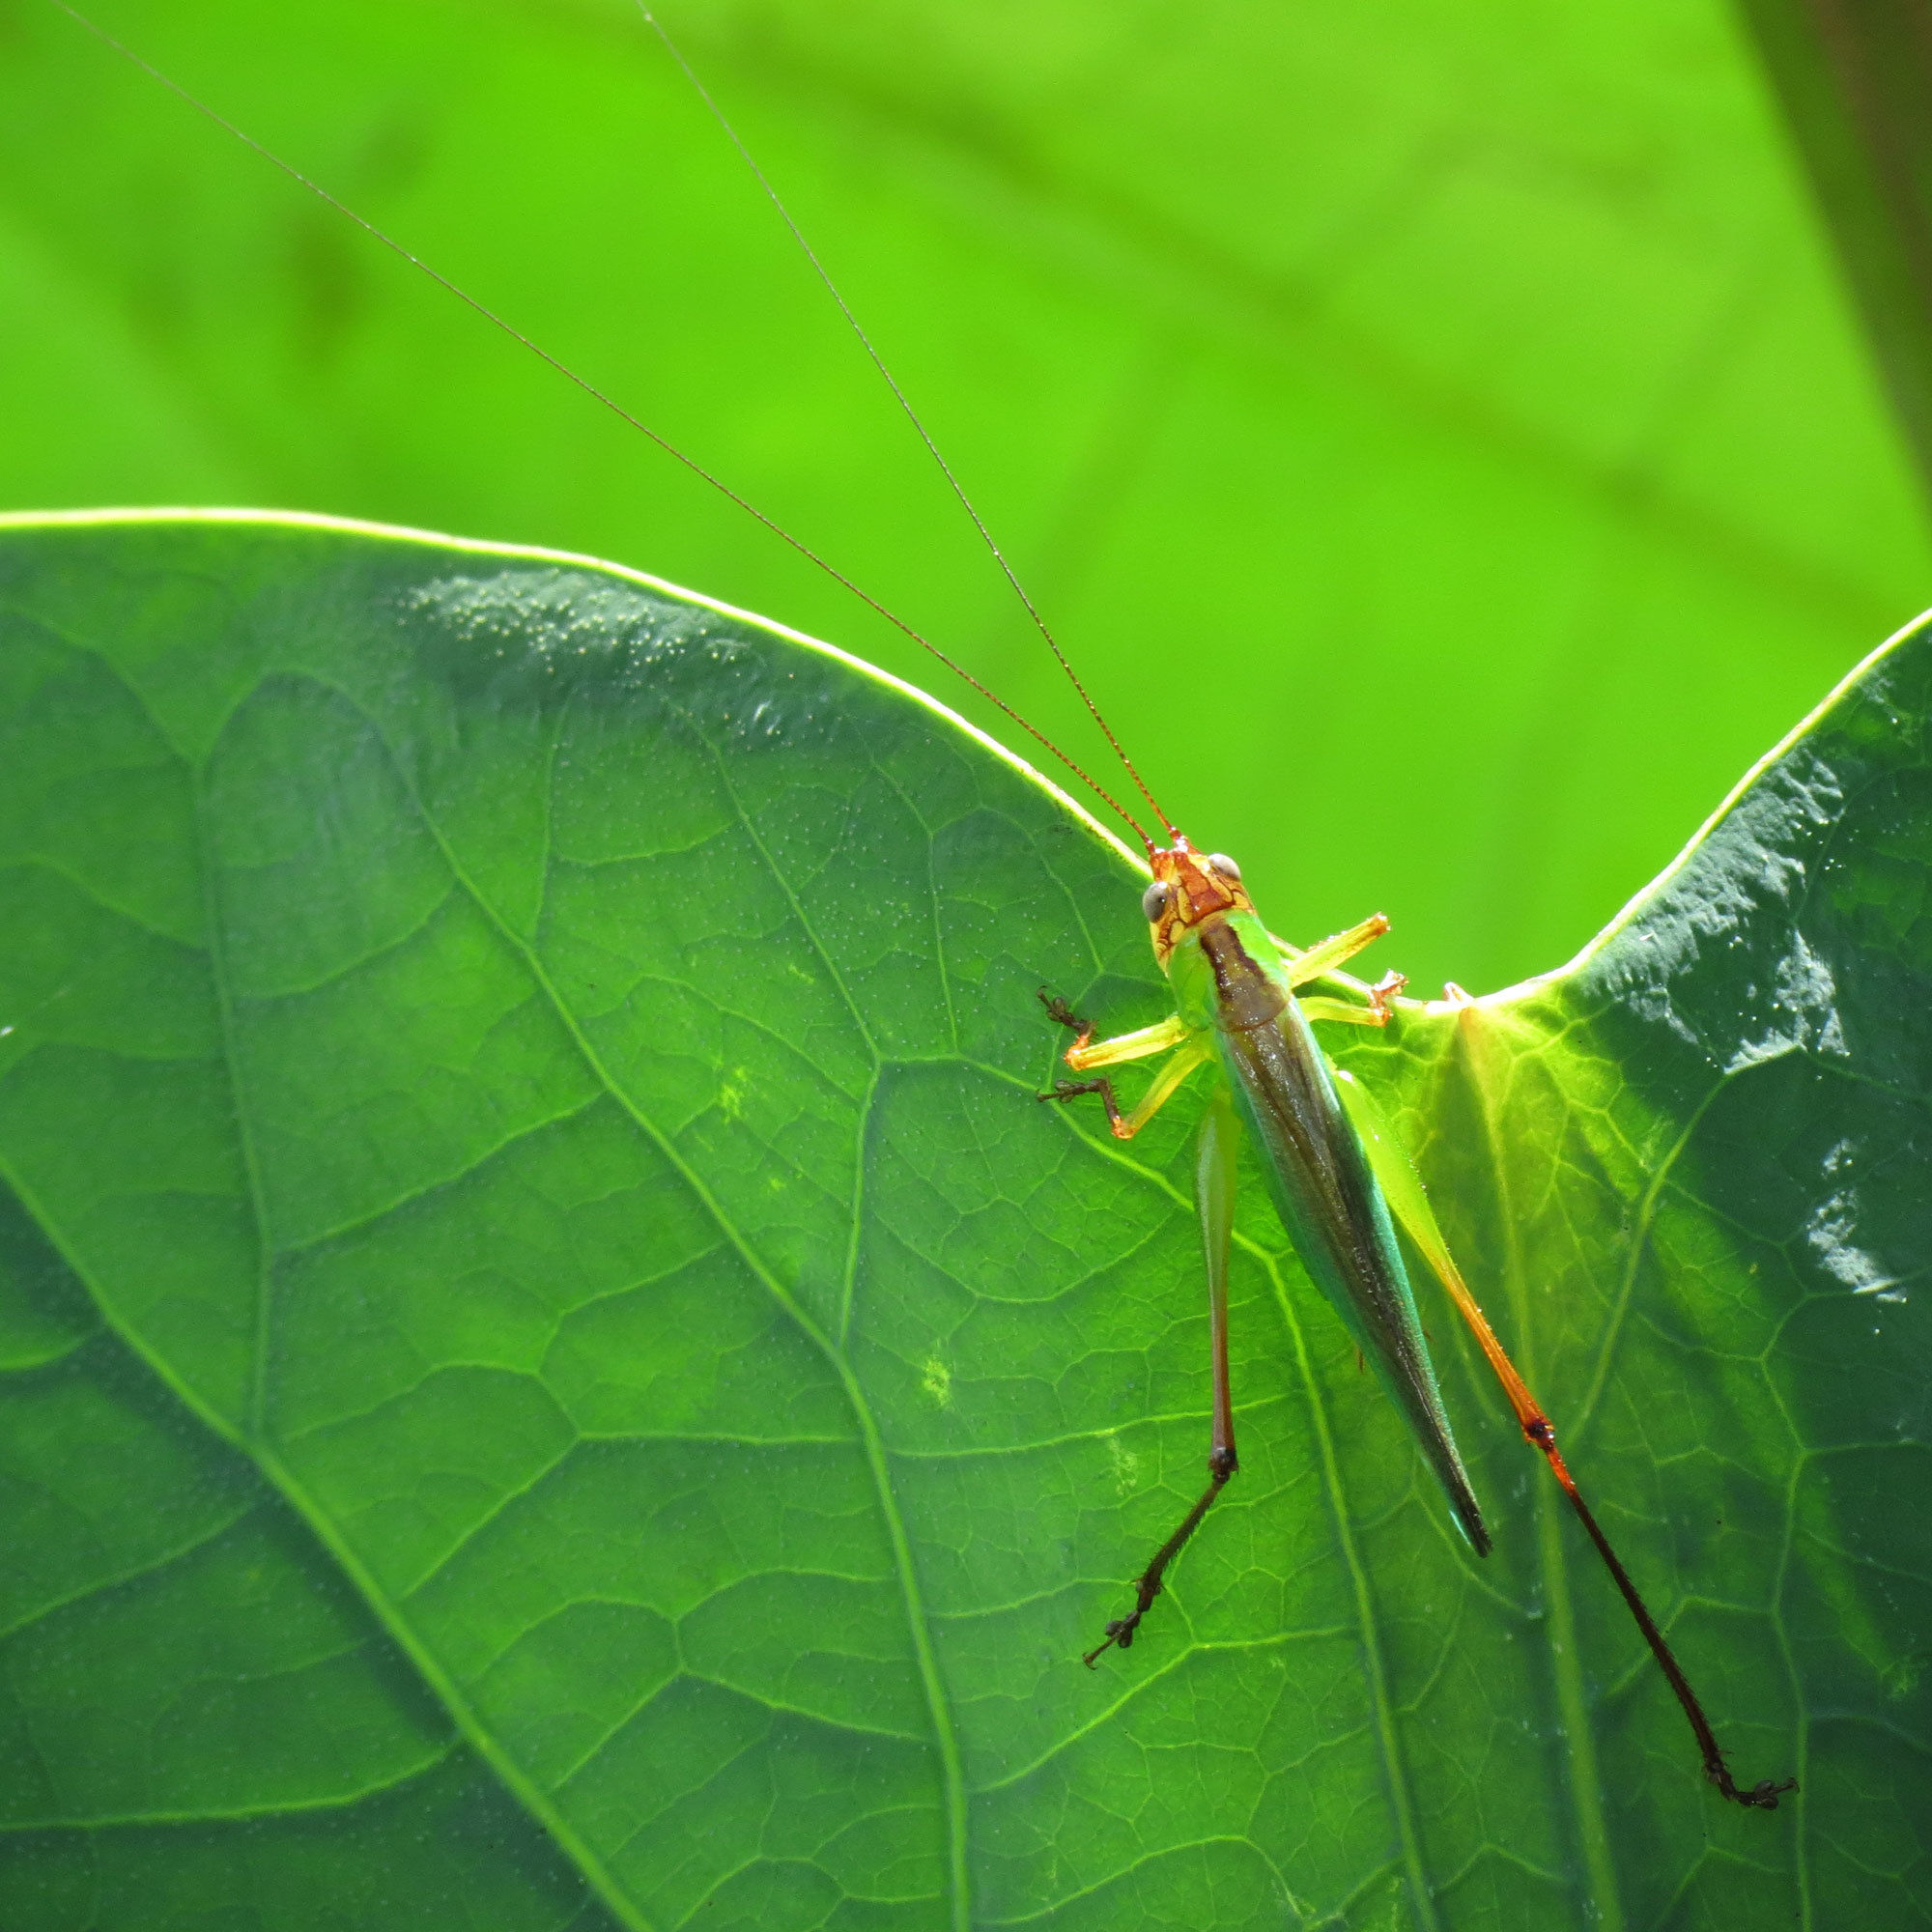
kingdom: Animalia
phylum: Arthropoda
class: Insecta
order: Orthoptera
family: Tettigoniidae
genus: Orchelimum
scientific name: Orchelimum pulchellum
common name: Handsome meadow katydid
